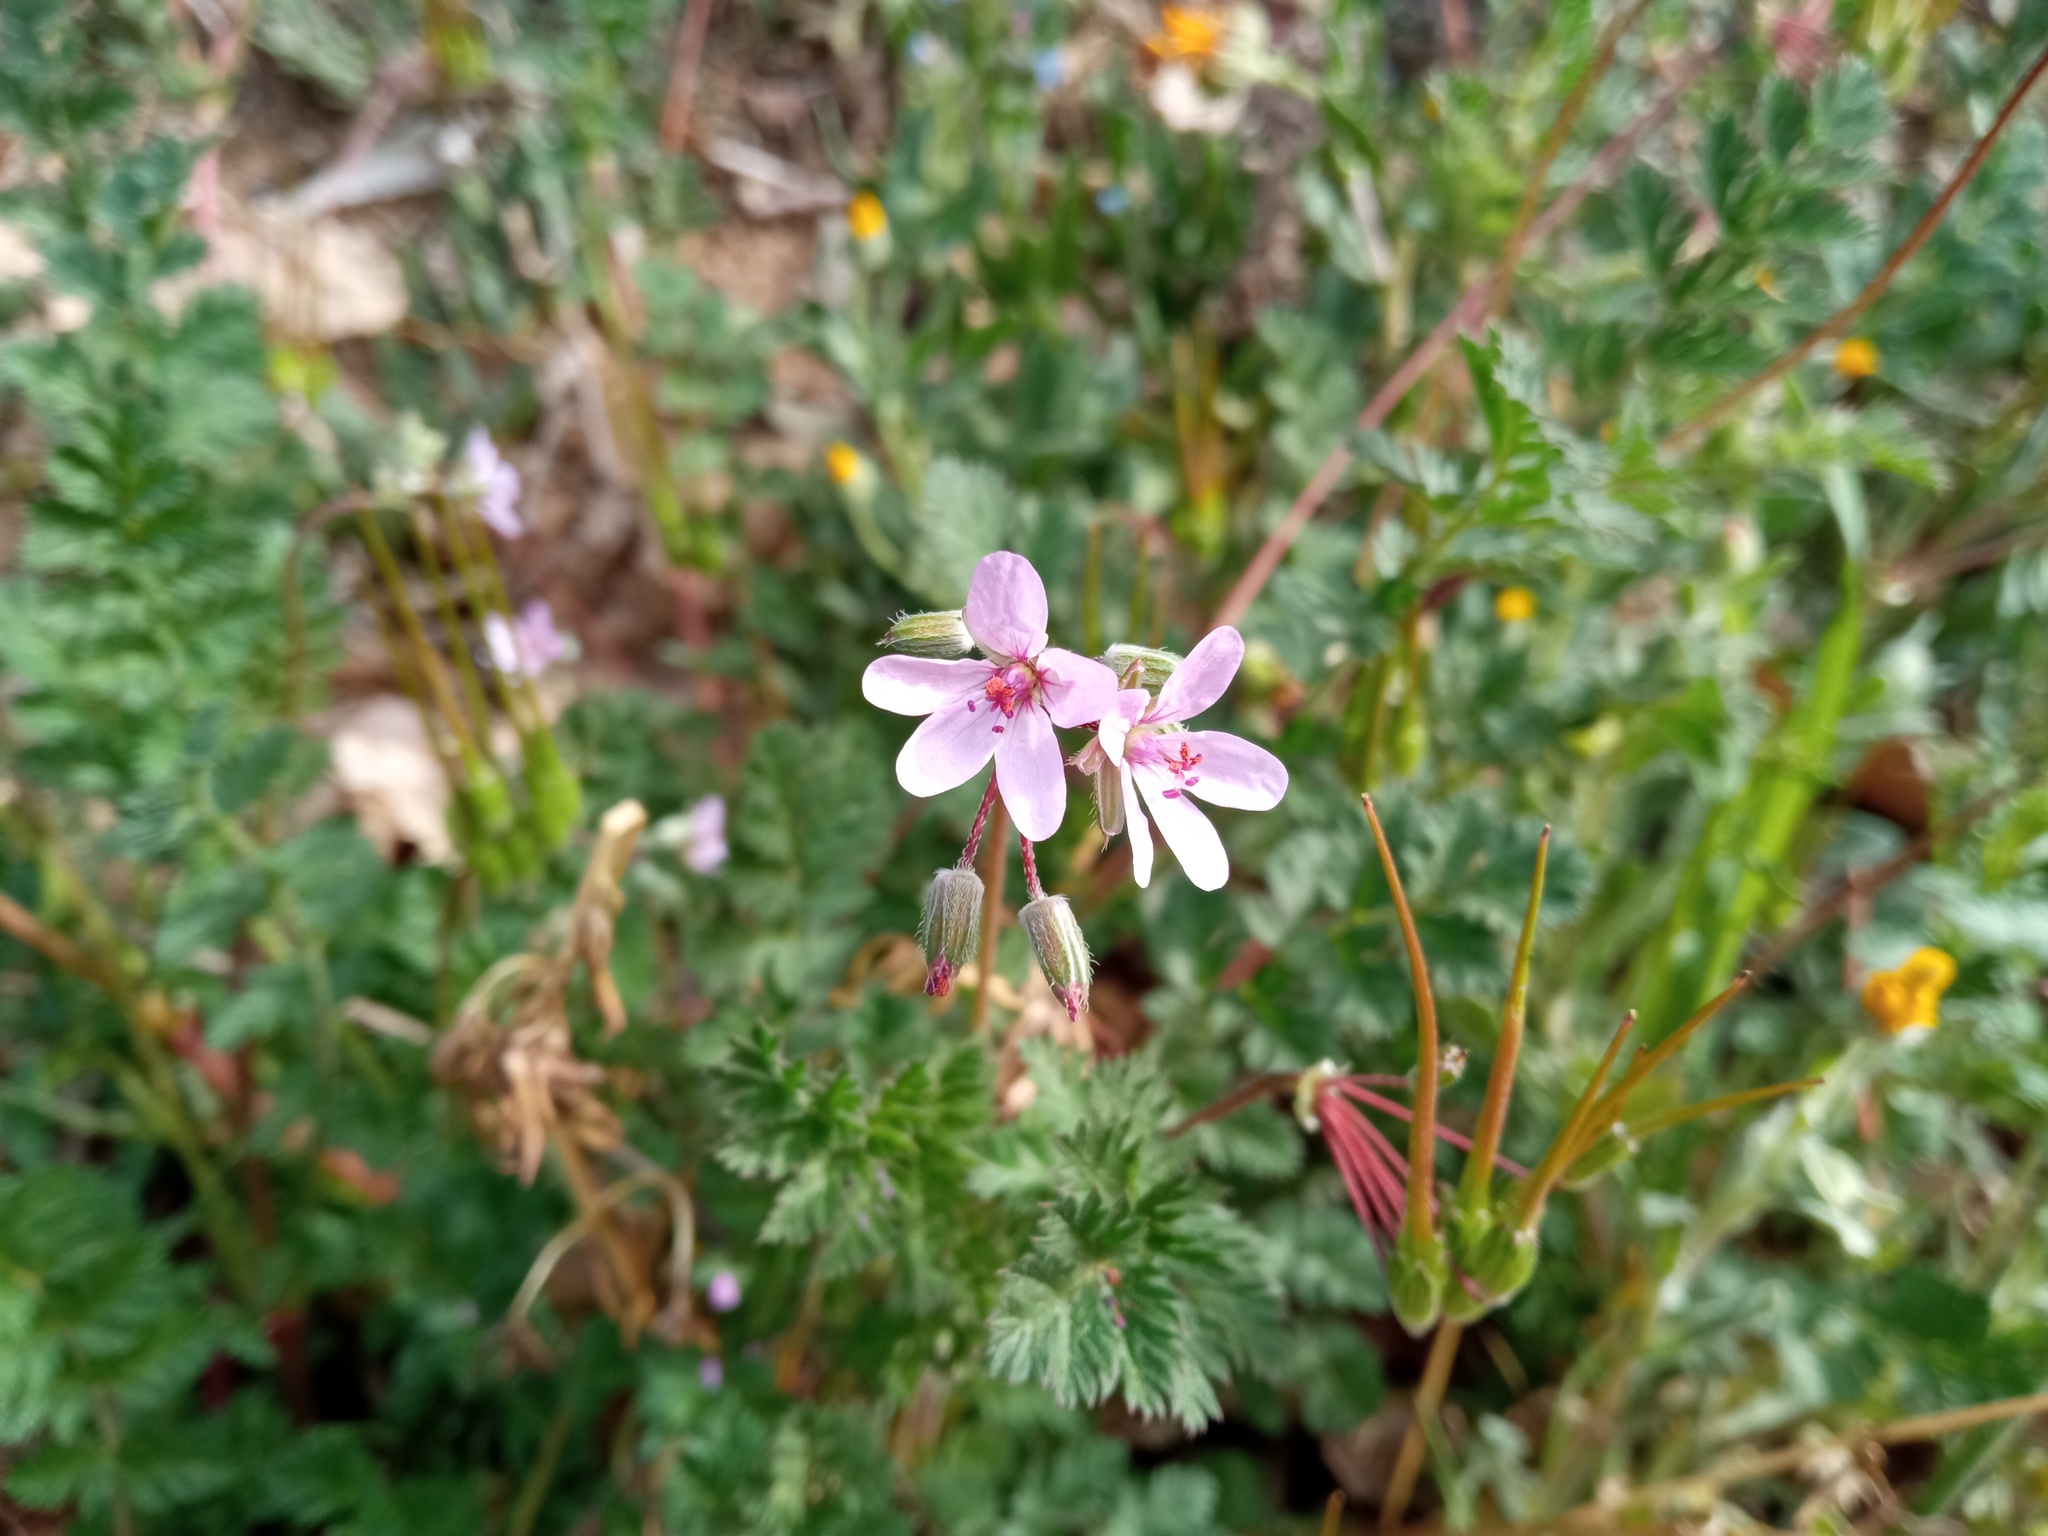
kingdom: Plantae
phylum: Tracheophyta
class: Magnoliopsida
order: Geraniales
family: Geraniaceae
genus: Erodium
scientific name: Erodium cicutarium
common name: Common stork's-bill
